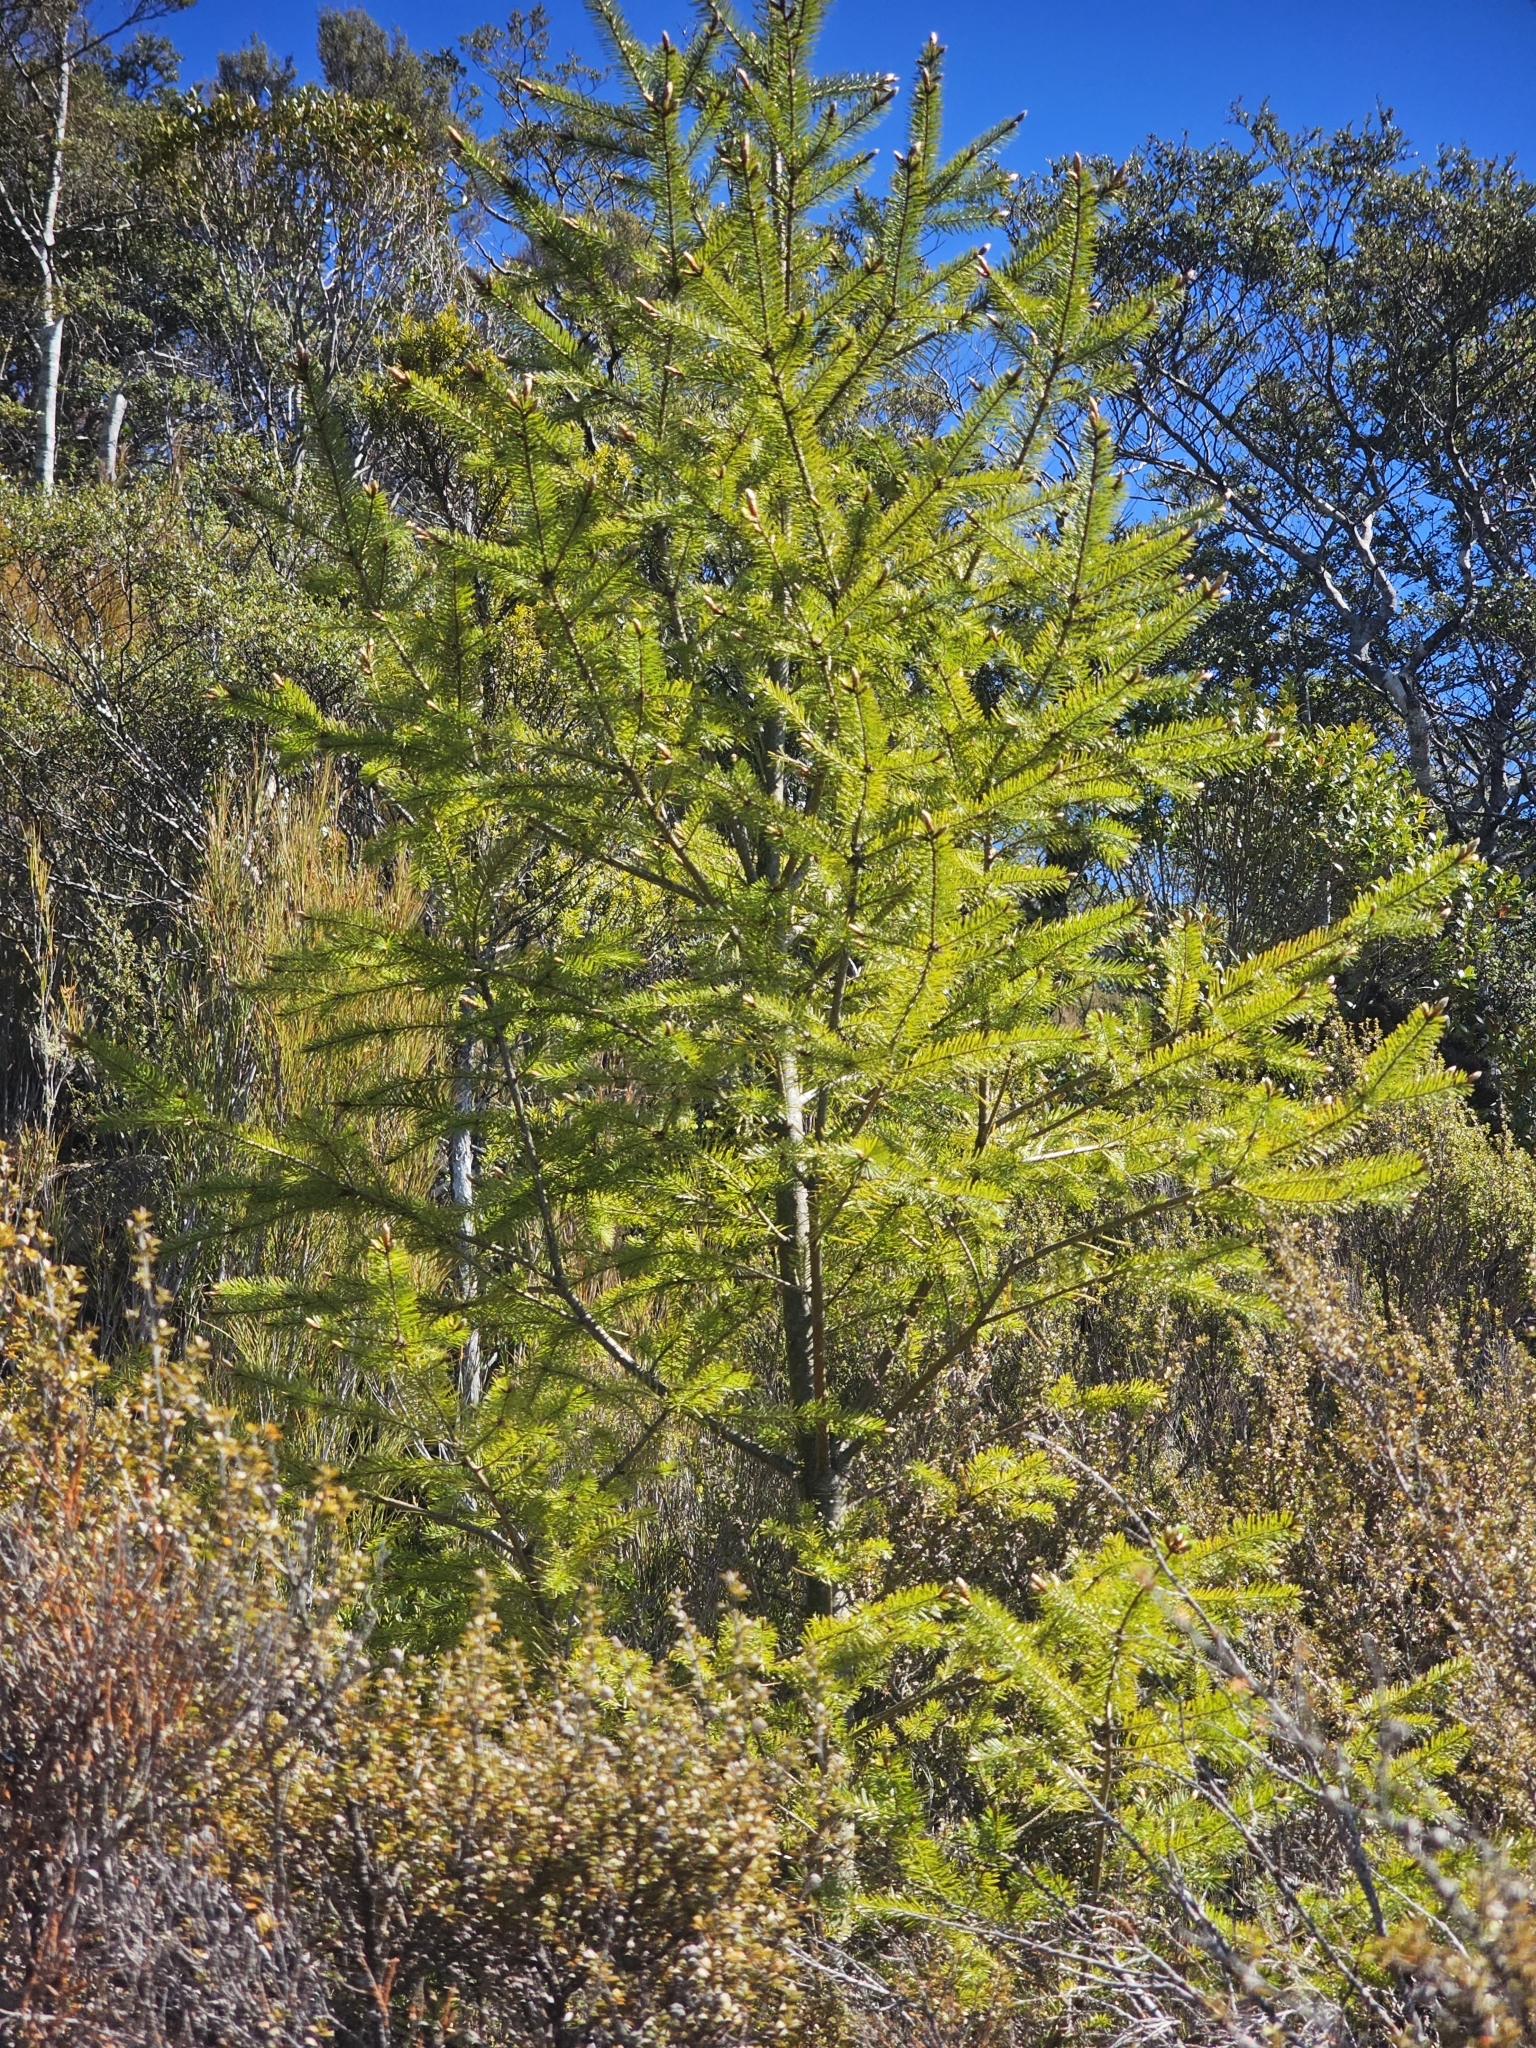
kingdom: Plantae
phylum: Tracheophyta
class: Pinopsida
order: Pinales
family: Pinaceae
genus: Pseudotsuga
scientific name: Pseudotsuga menziesii
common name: Douglas fir
